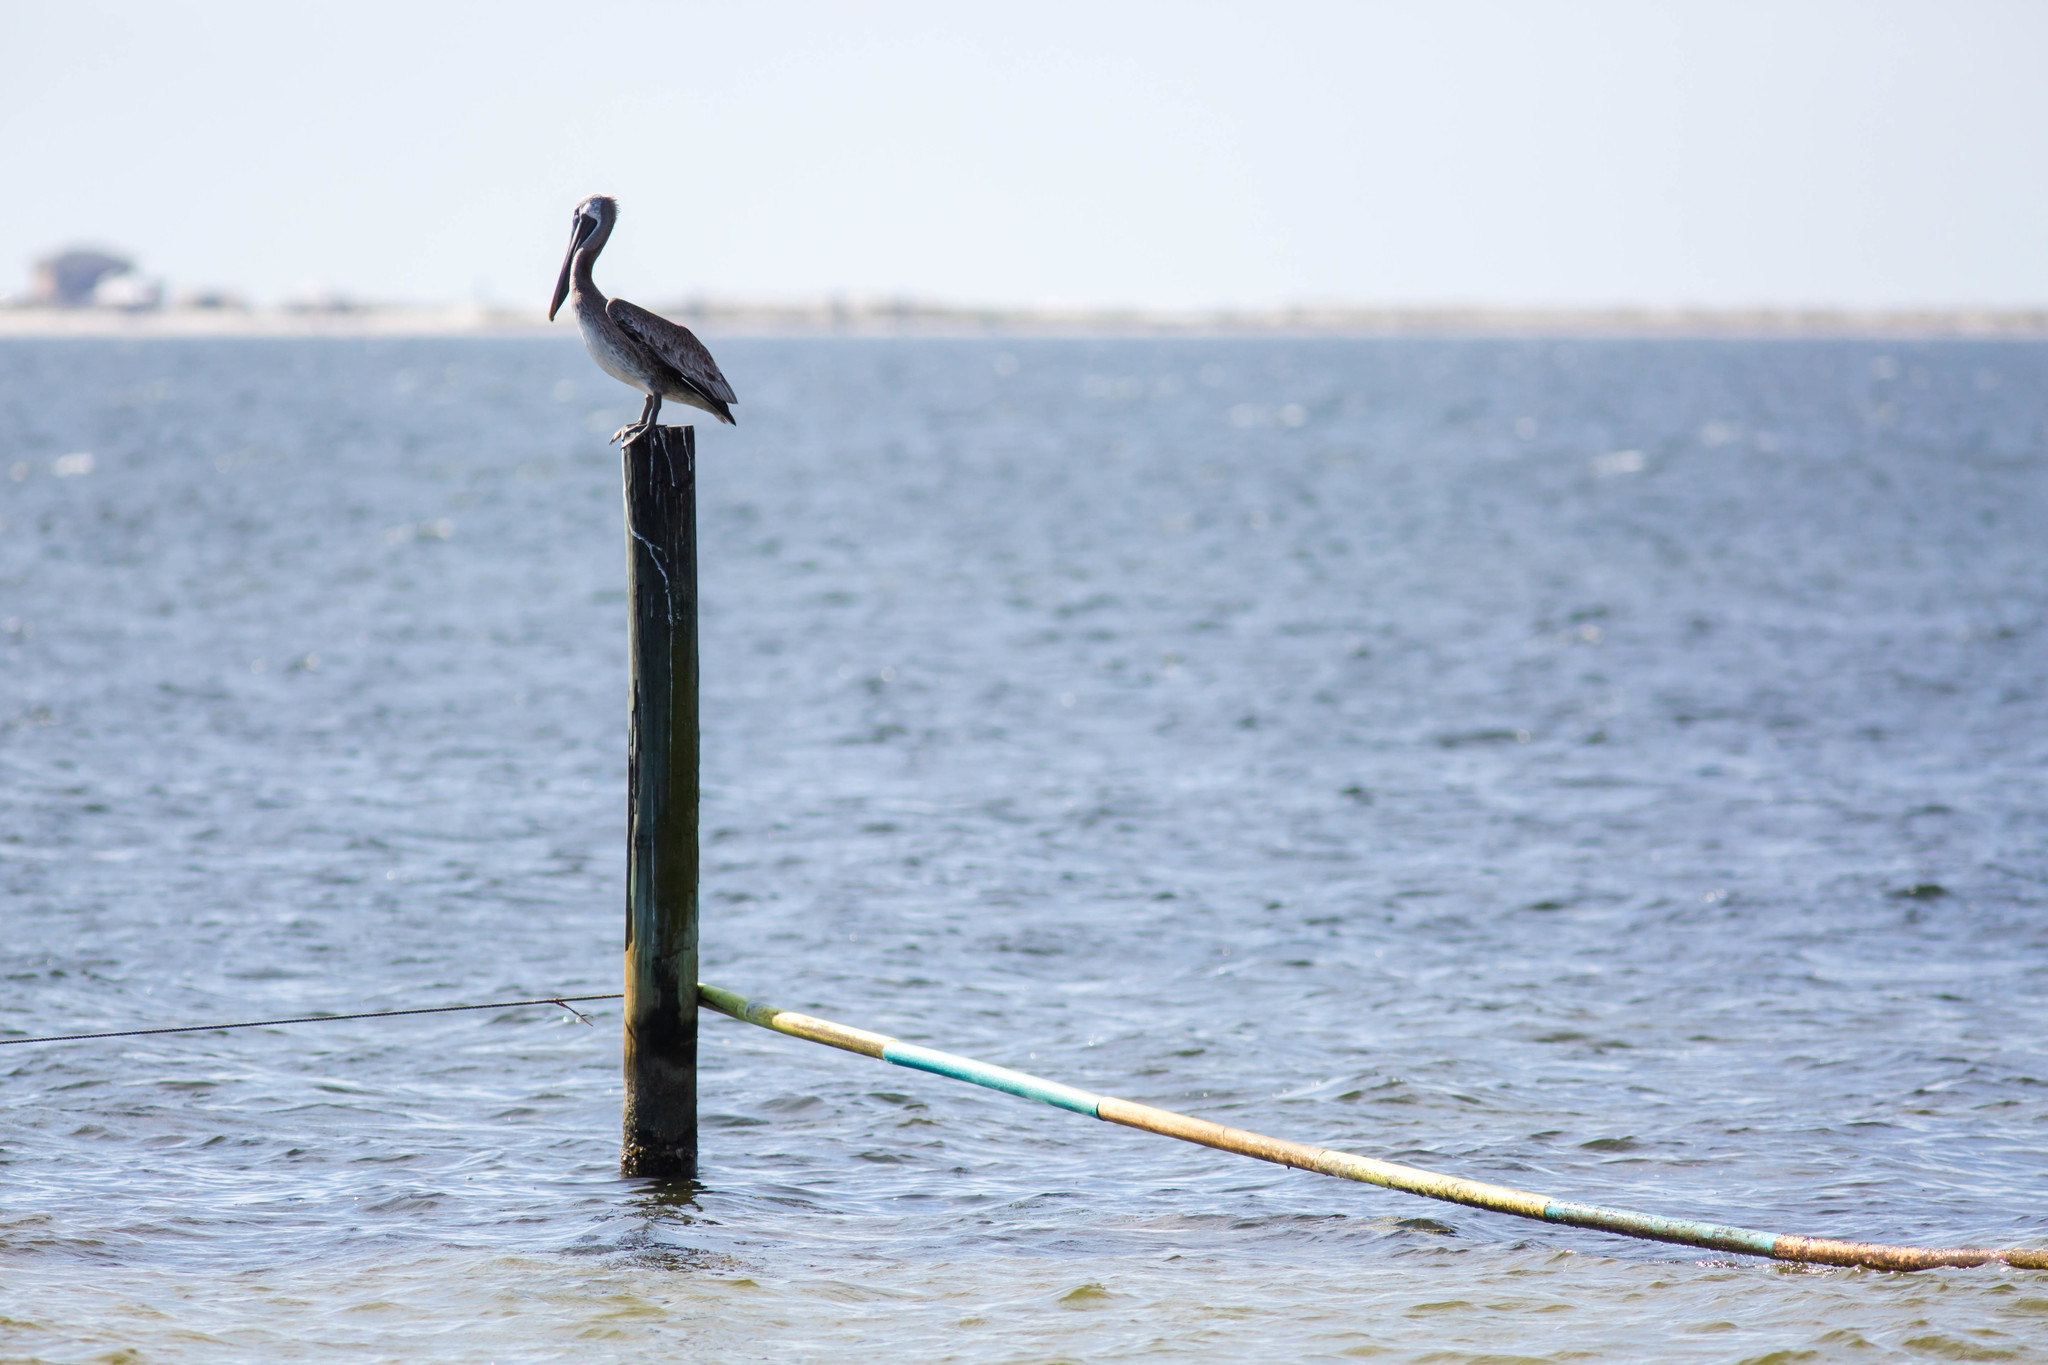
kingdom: Animalia
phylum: Chordata
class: Aves
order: Pelecaniformes
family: Pelecanidae
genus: Pelecanus
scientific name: Pelecanus occidentalis
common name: Brown pelican
